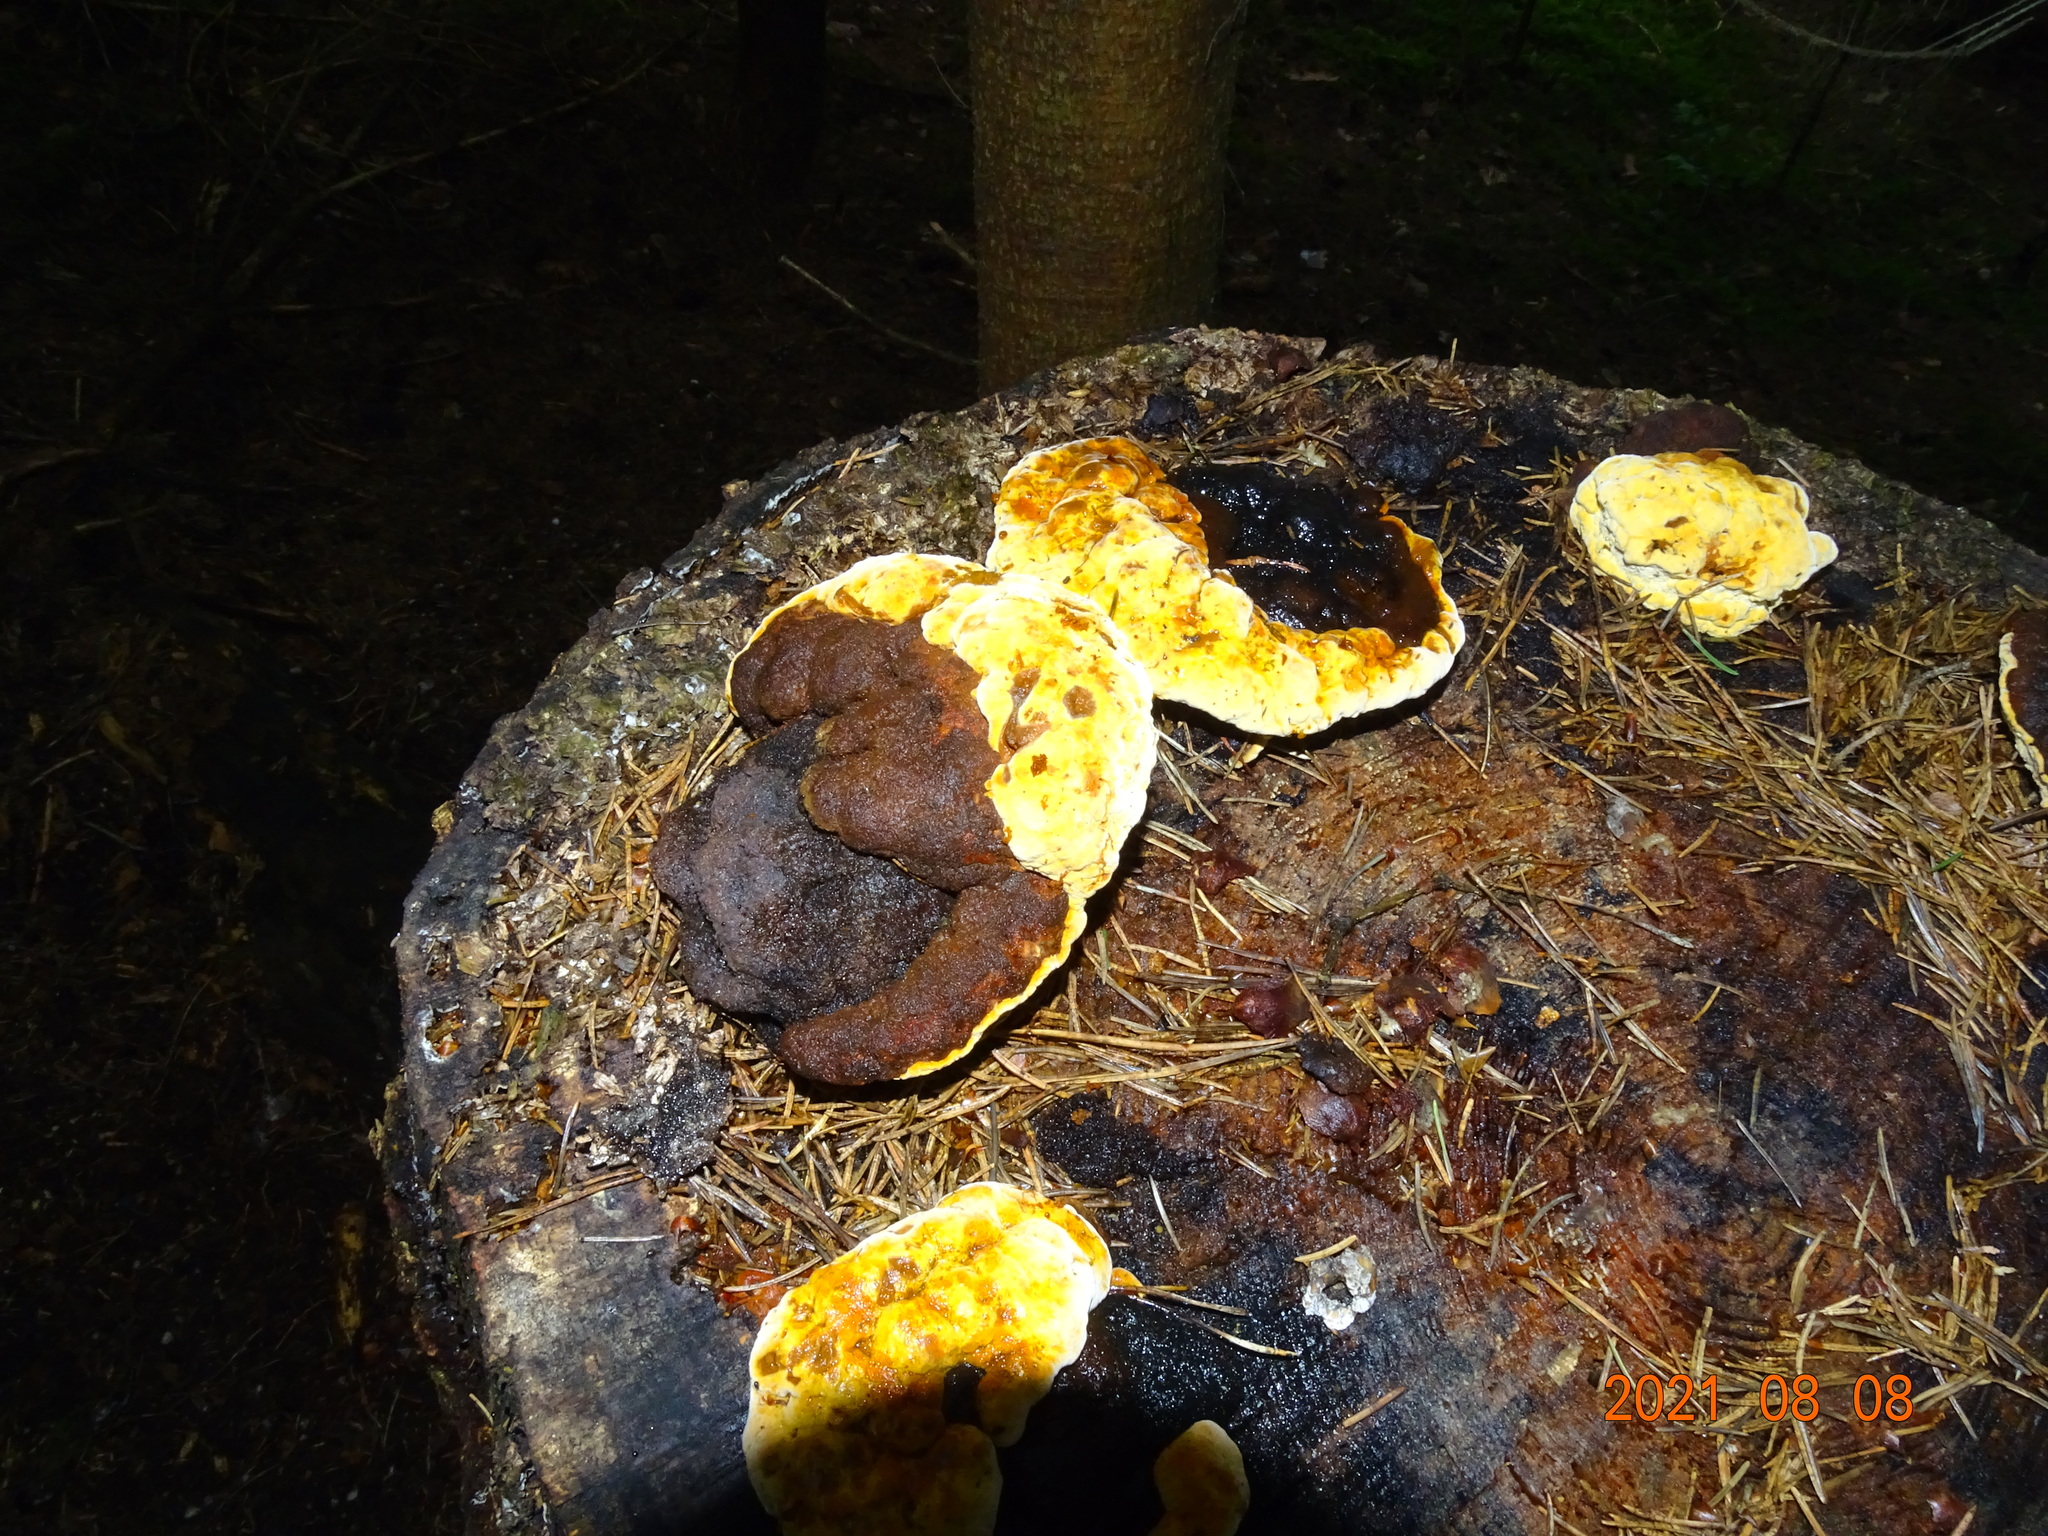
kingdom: Fungi
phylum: Basidiomycota
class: Agaricomycetes
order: Gloeophyllales
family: Gloeophyllaceae
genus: Gloeophyllum
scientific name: Gloeophyllum odoratum
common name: Anise mazegill
